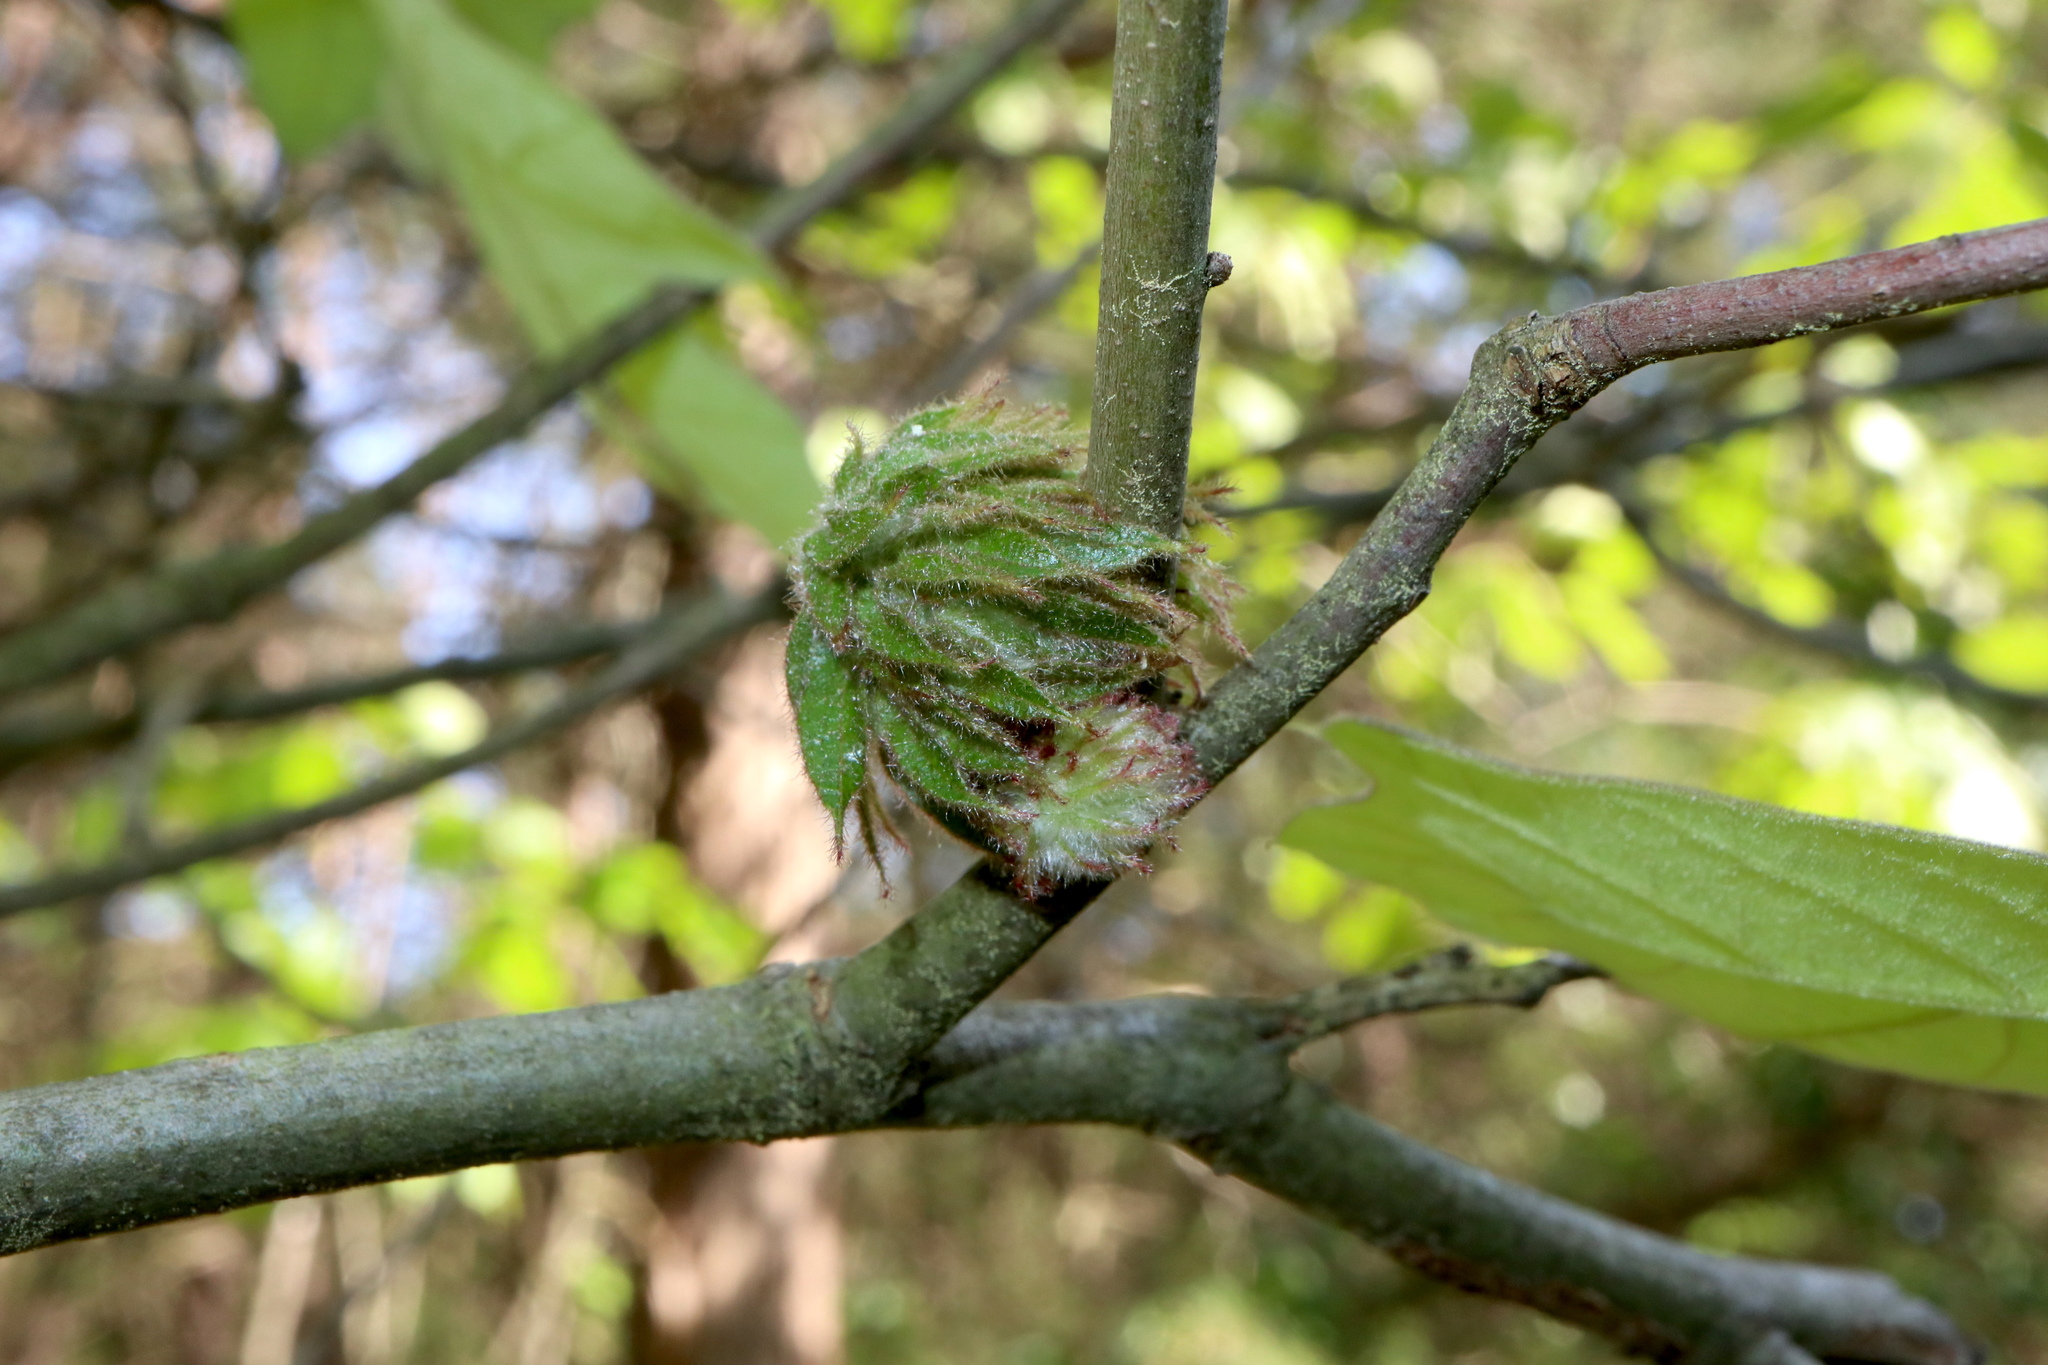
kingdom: Animalia
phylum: Arthropoda
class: Insecta
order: Hymenoptera
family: Cynipidae
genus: Dryocosmus
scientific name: Dryocosmus
